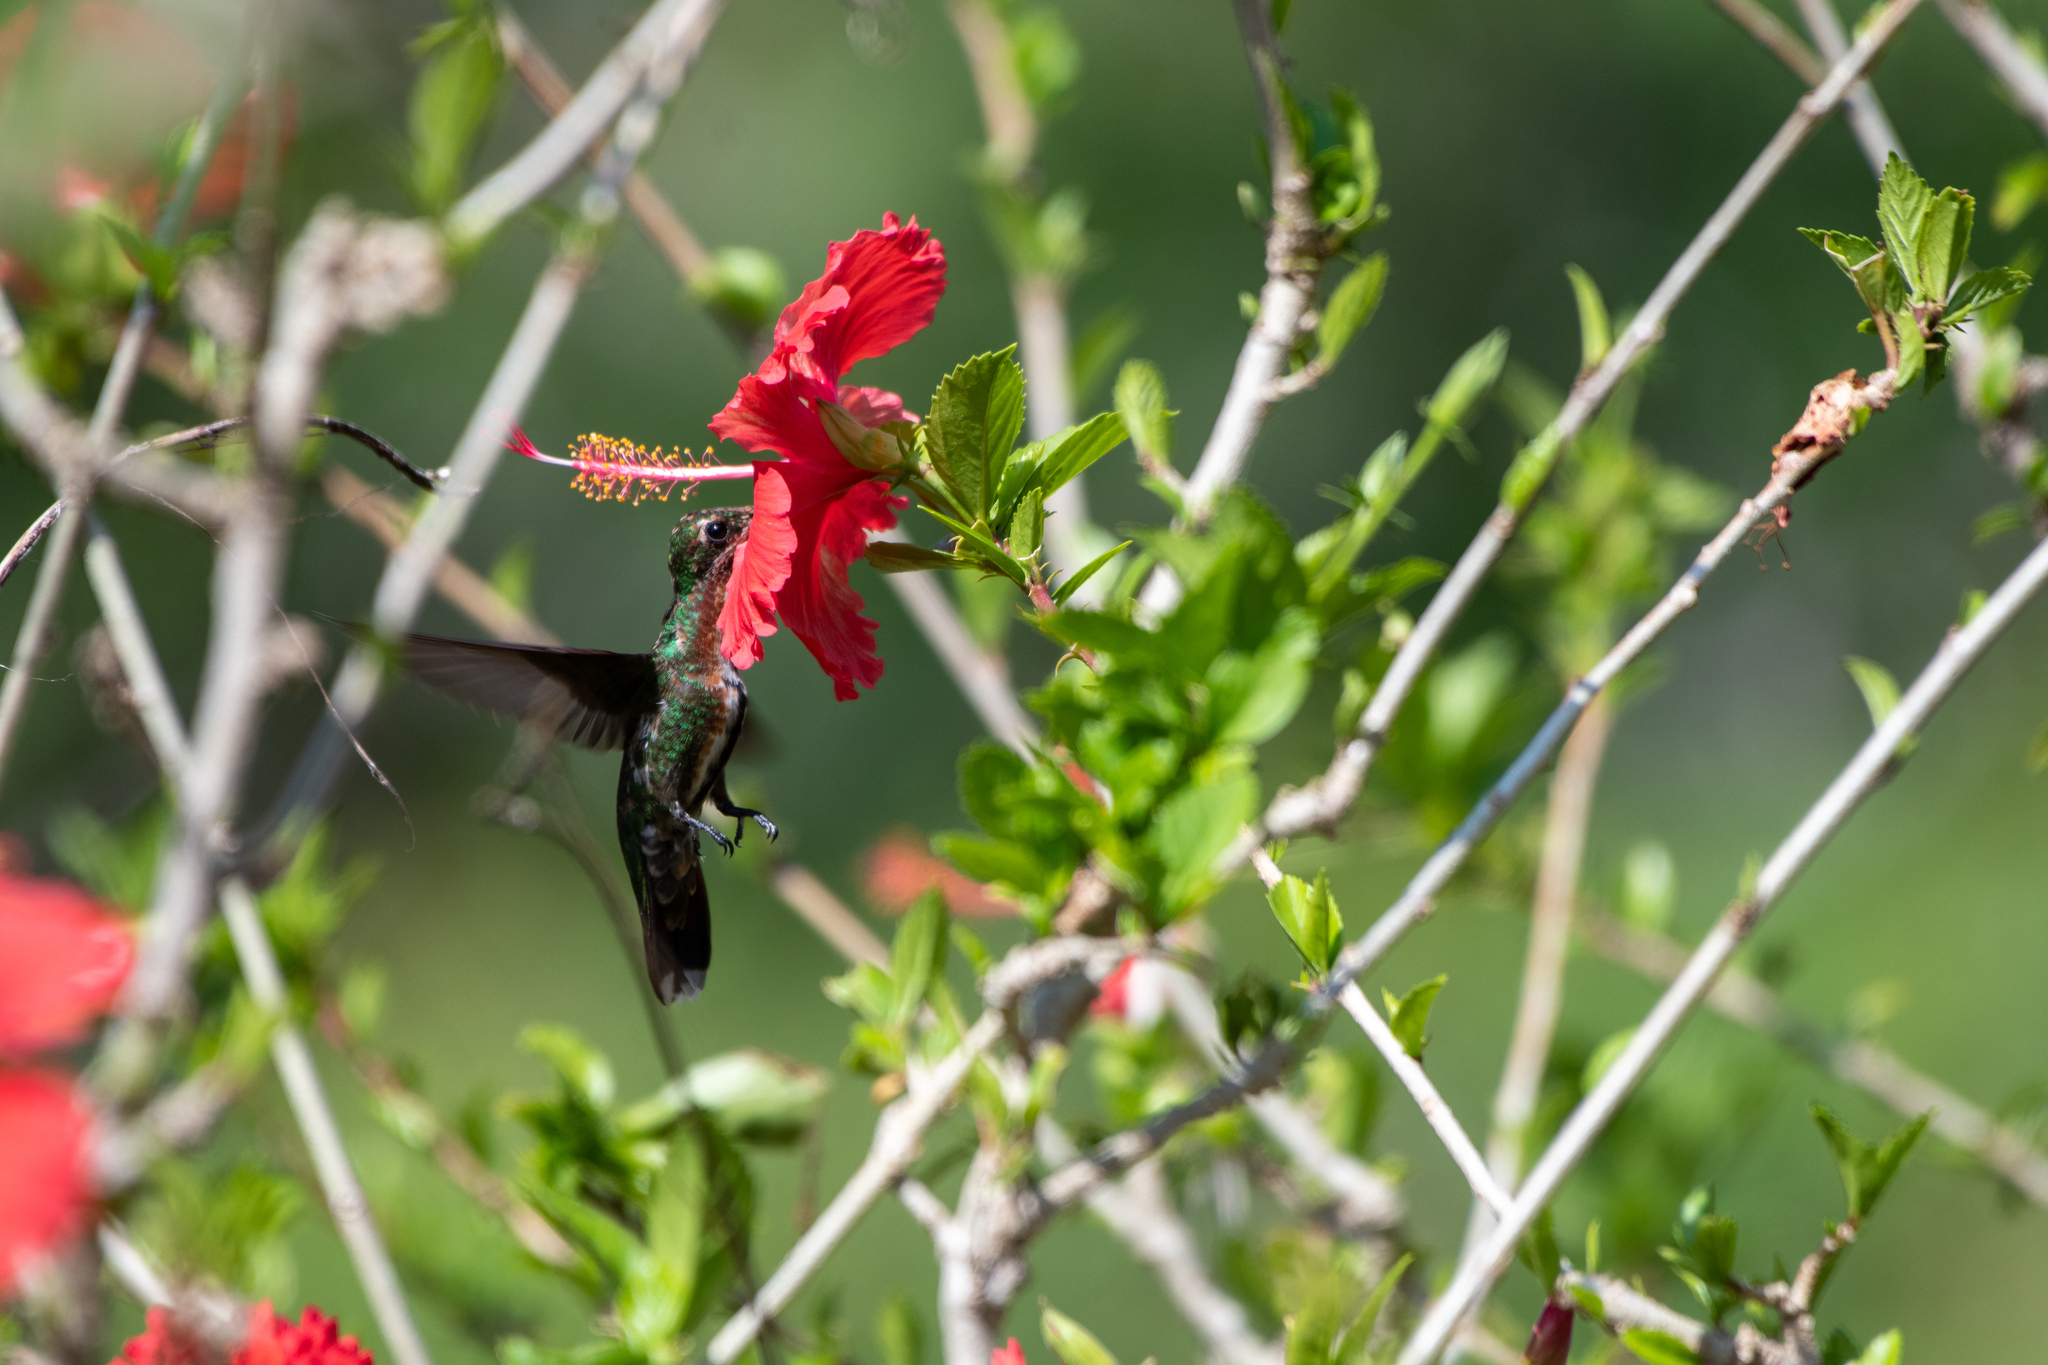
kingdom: Animalia
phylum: Chordata
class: Aves
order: Apodiformes
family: Trochilidae
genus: Anthracothorax
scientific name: Anthracothorax prevostii
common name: Green-breasted mango
